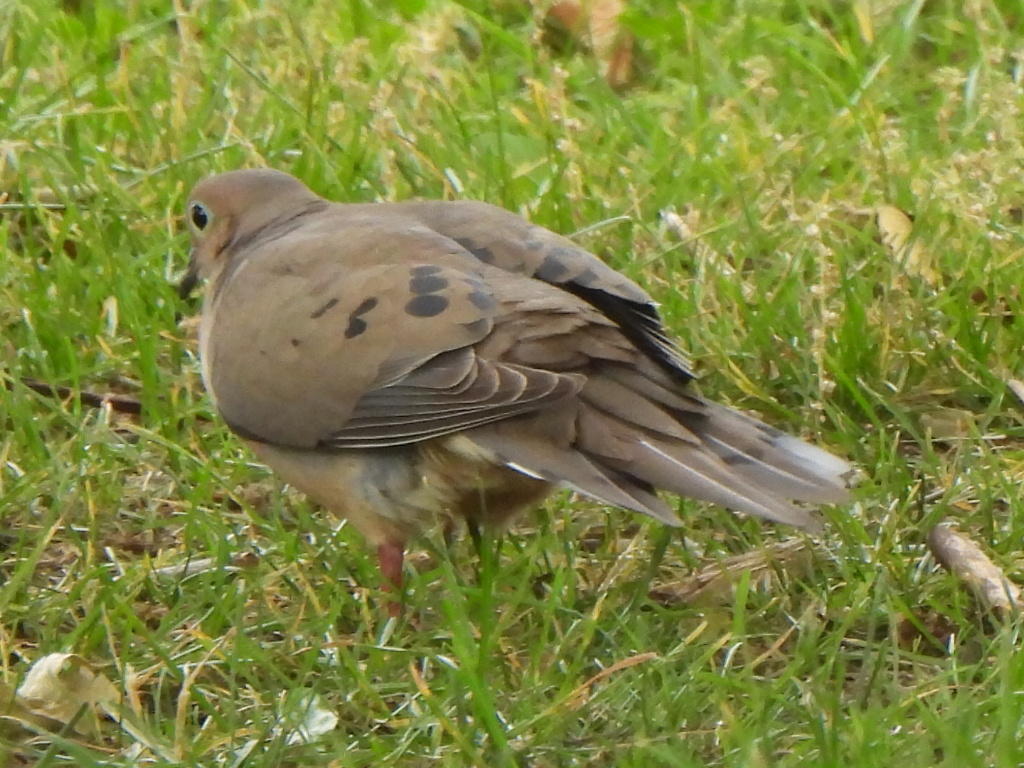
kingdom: Animalia
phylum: Chordata
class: Aves
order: Columbiformes
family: Columbidae
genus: Zenaida
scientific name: Zenaida macroura
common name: Mourning dove
